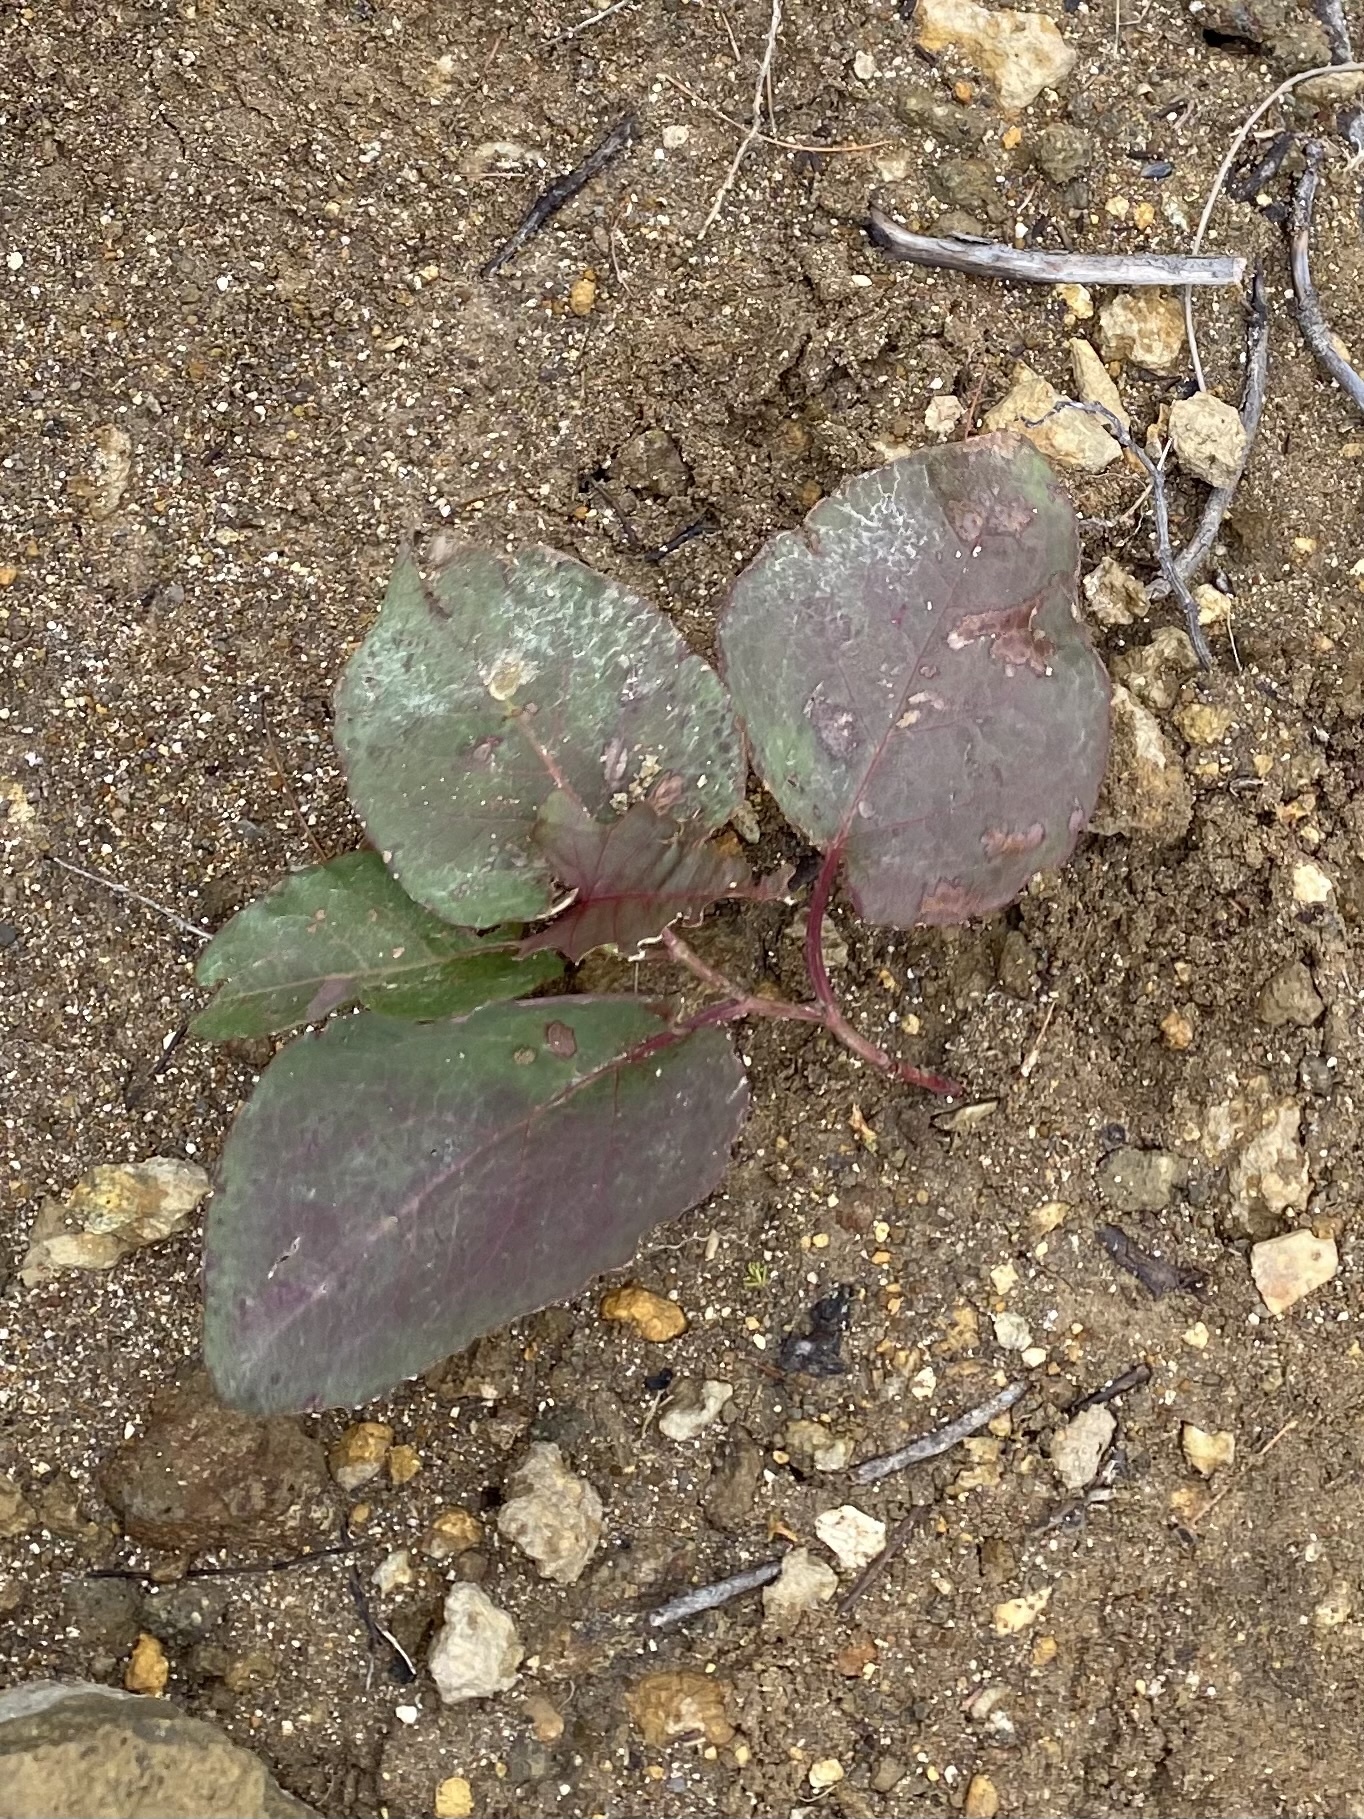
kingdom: Plantae
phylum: Tracheophyta
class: Magnoliopsida
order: Caryophyllales
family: Polygonaceae
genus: Reynoutria
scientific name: Reynoutria sachalinensis
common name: Giant knotweed
